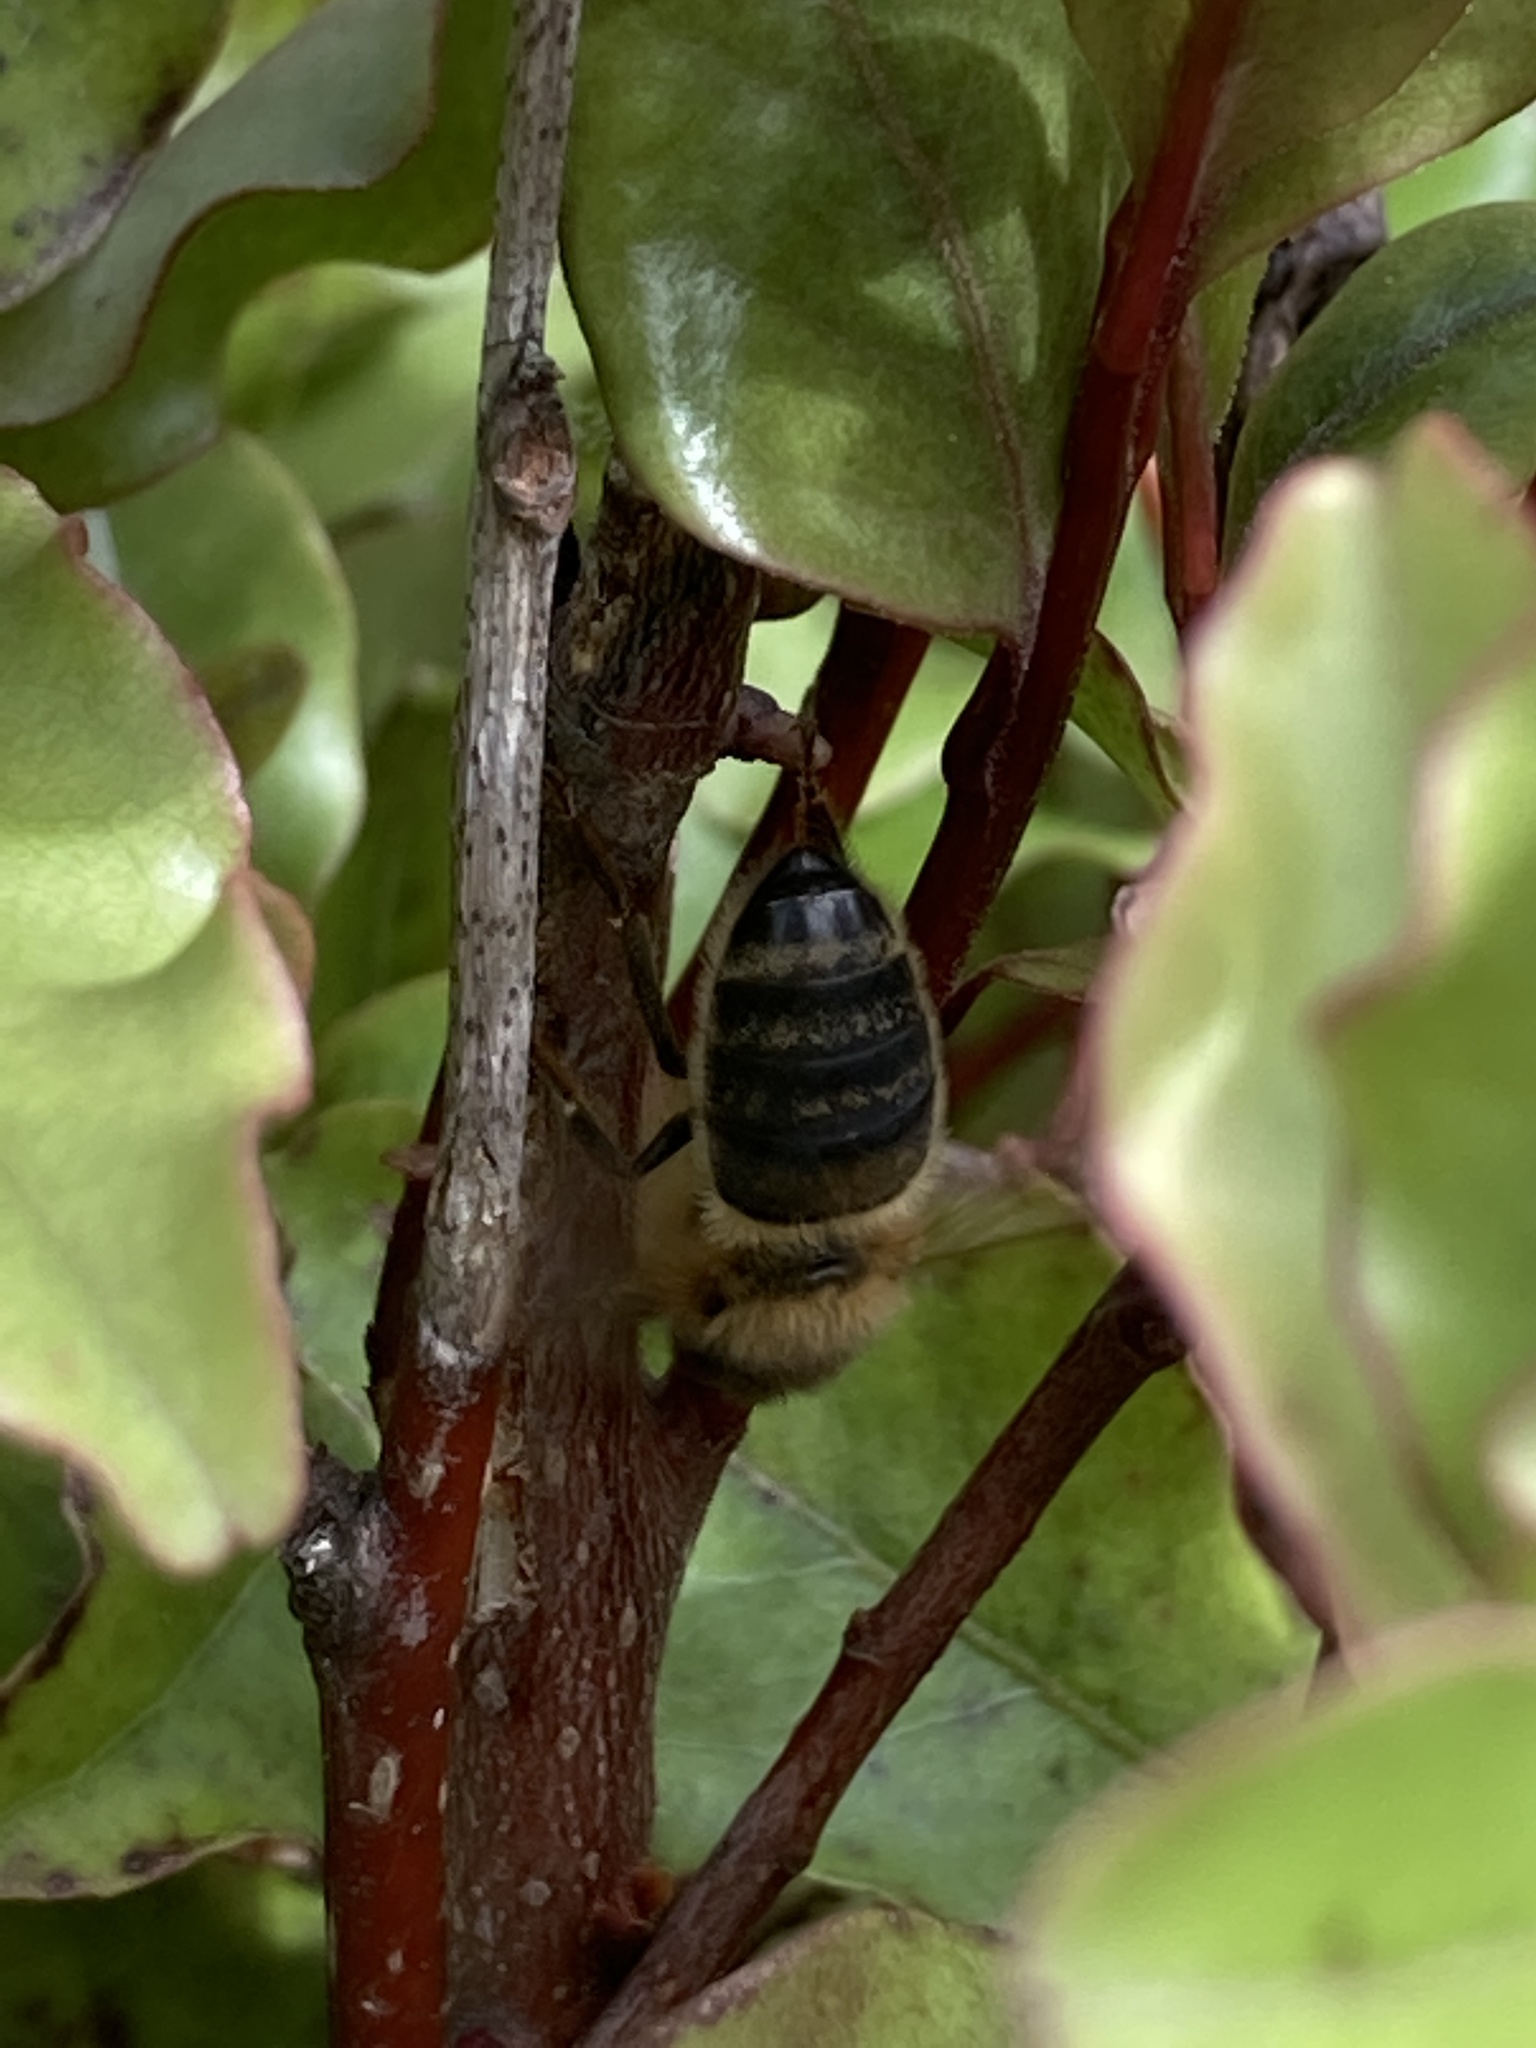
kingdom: Animalia
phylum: Arthropoda
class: Insecta
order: Hymenoptera
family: Apidae
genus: Apis
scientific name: Apis mellifera
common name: Honey bee
